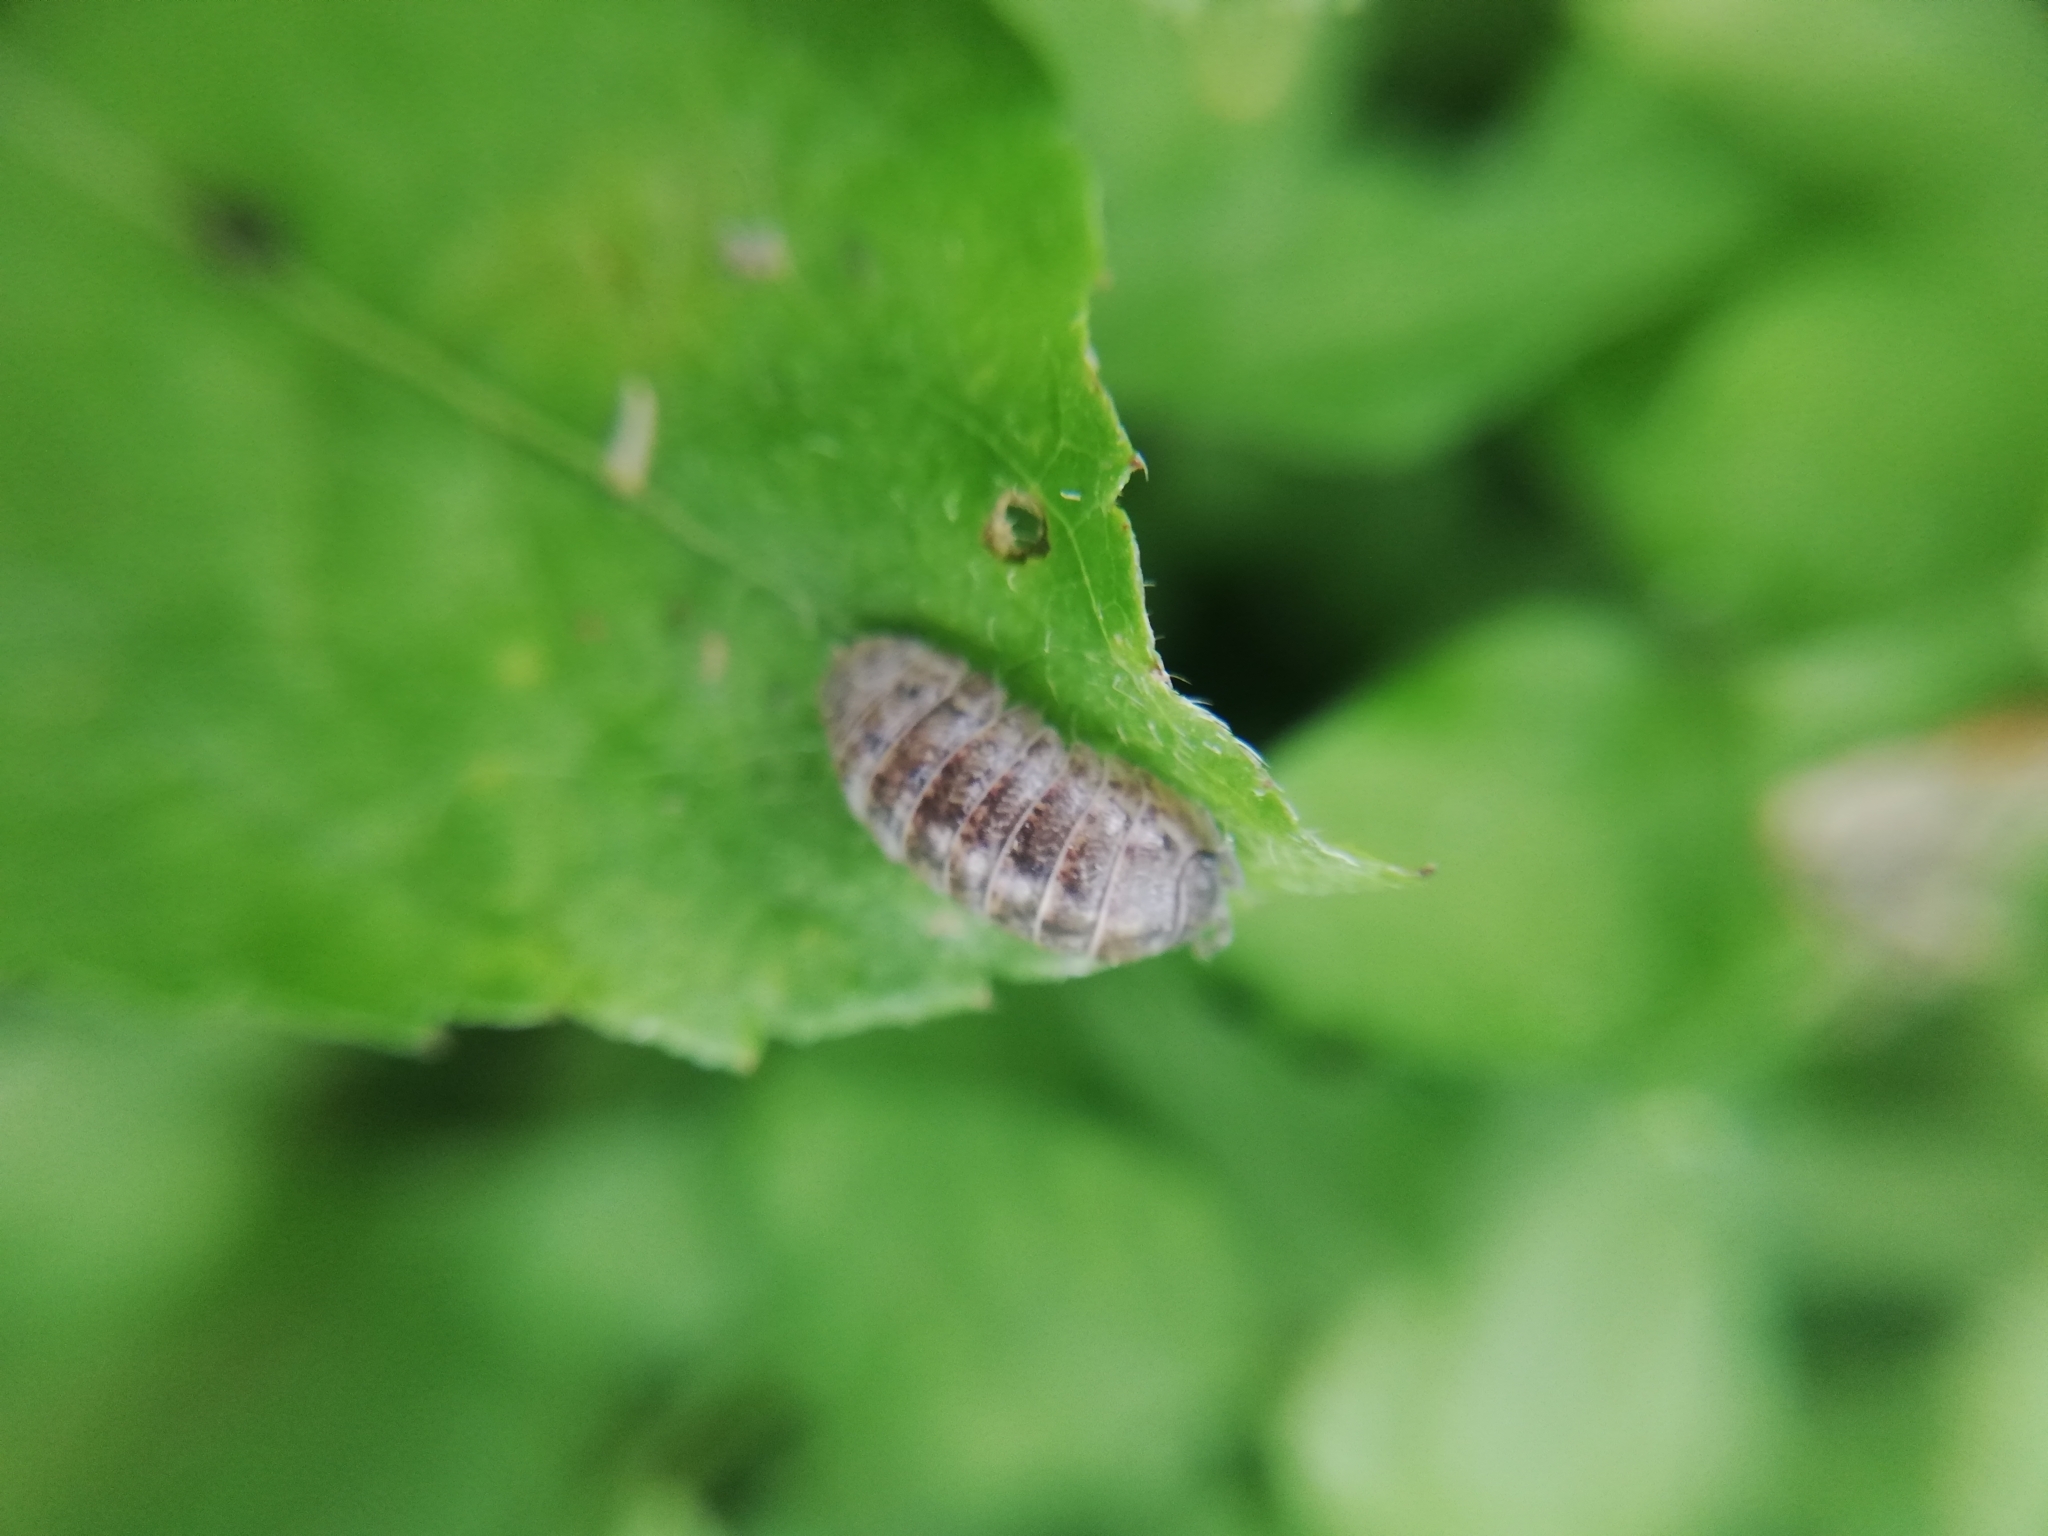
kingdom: Animalia
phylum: Arthropoda
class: Malacostraca
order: Isopoda
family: Armadillidiidae
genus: Armadillidium
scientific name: Armadillidium vulgare
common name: Common pill woodlouse
